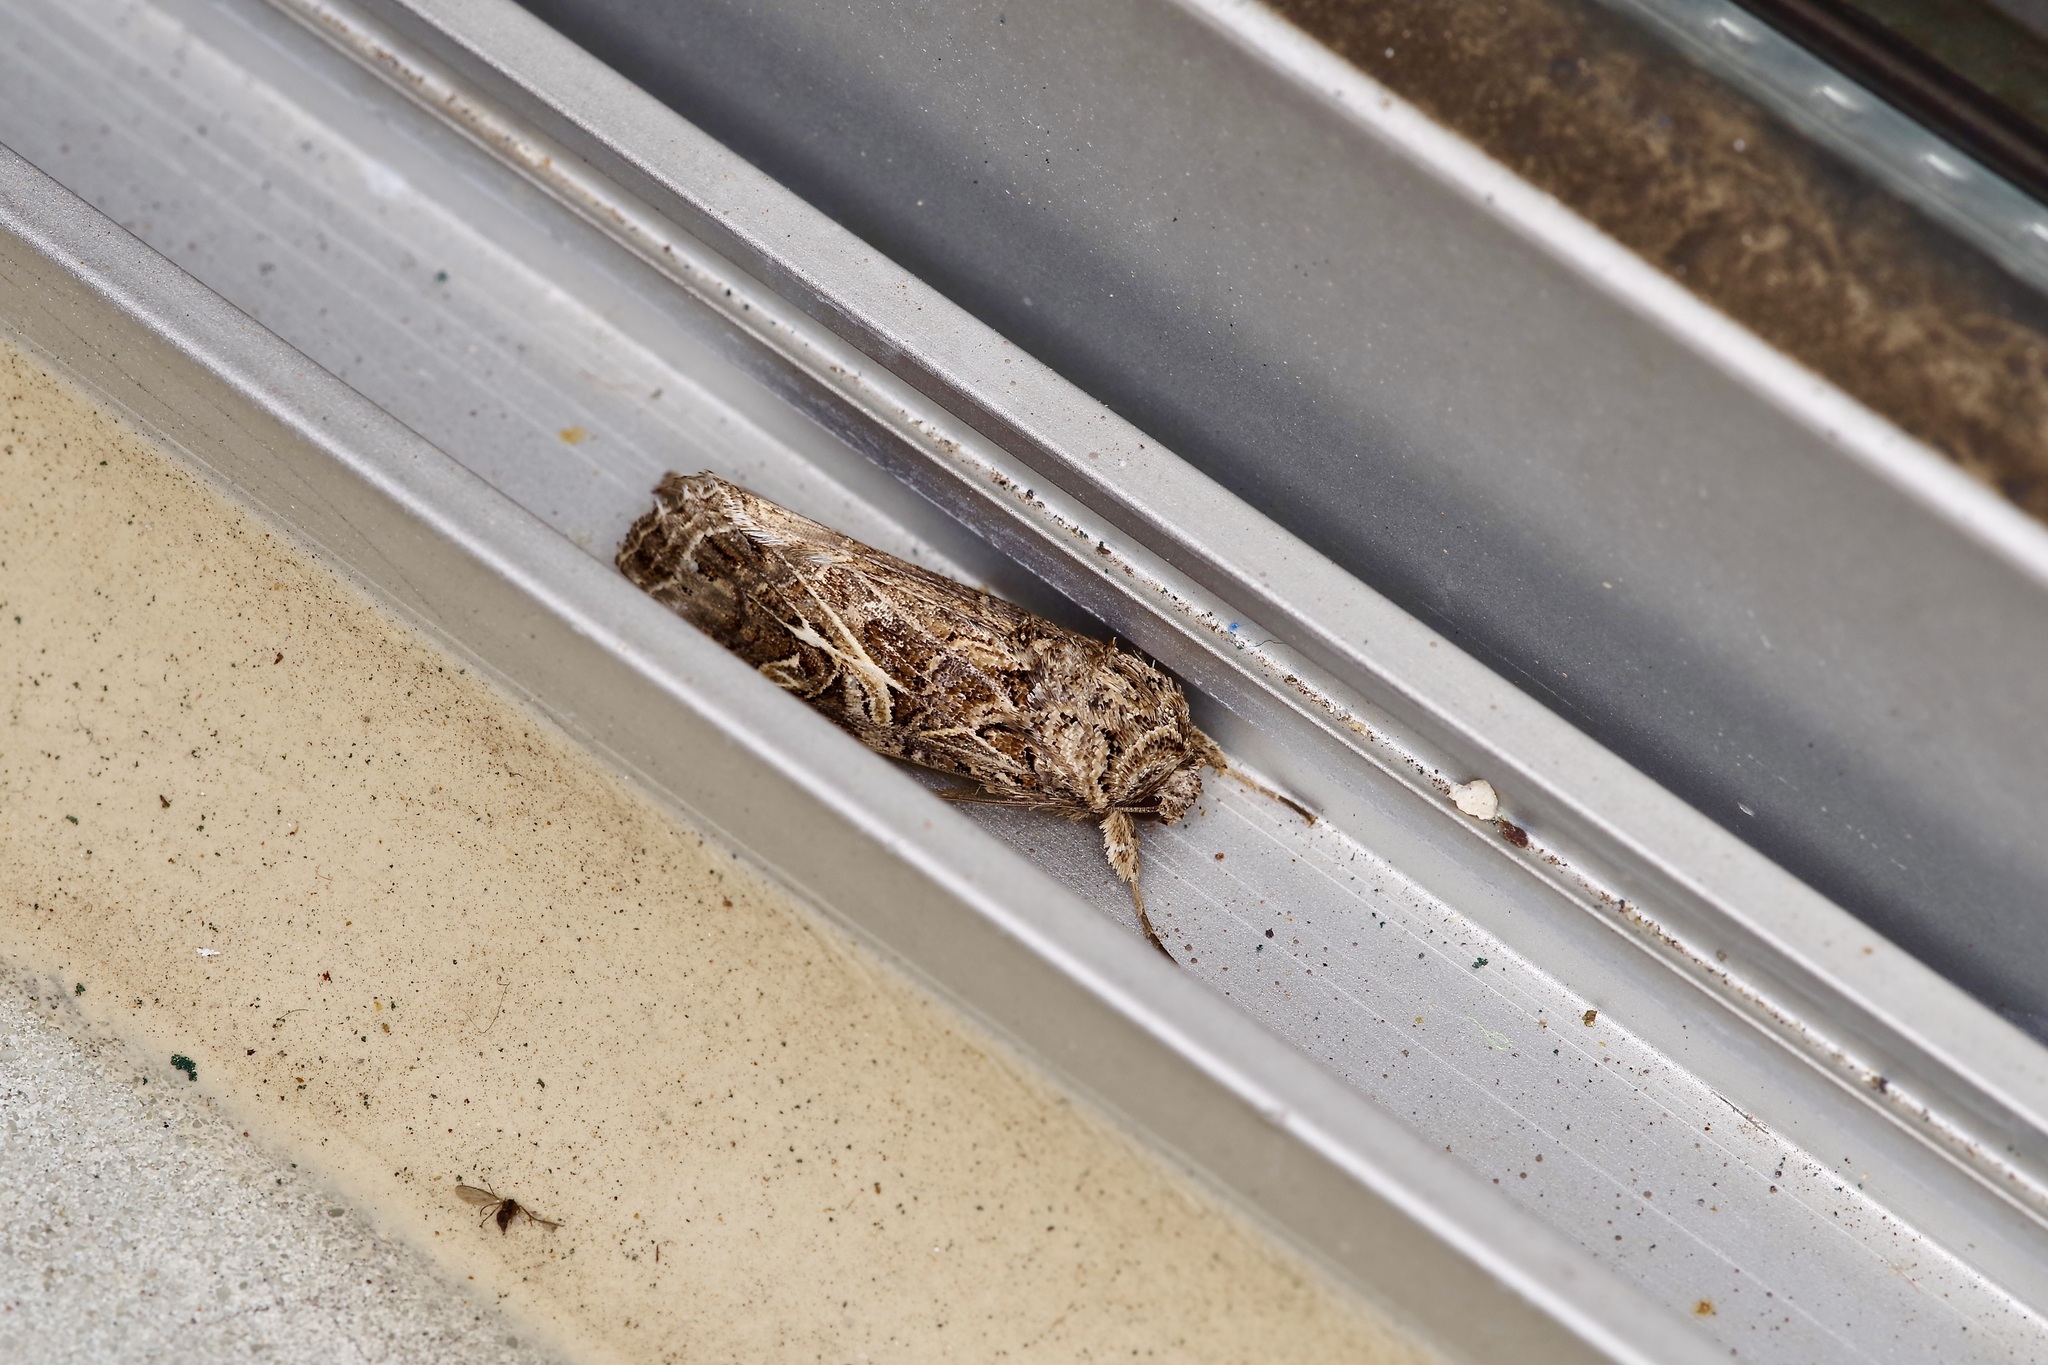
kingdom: Animalia
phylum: Arthropoda
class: Insecta
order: Lepidoptera
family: Noctuidae
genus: Spodoptera
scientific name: Spodoptera ornithogalli
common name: Yellow-striped armyworm
